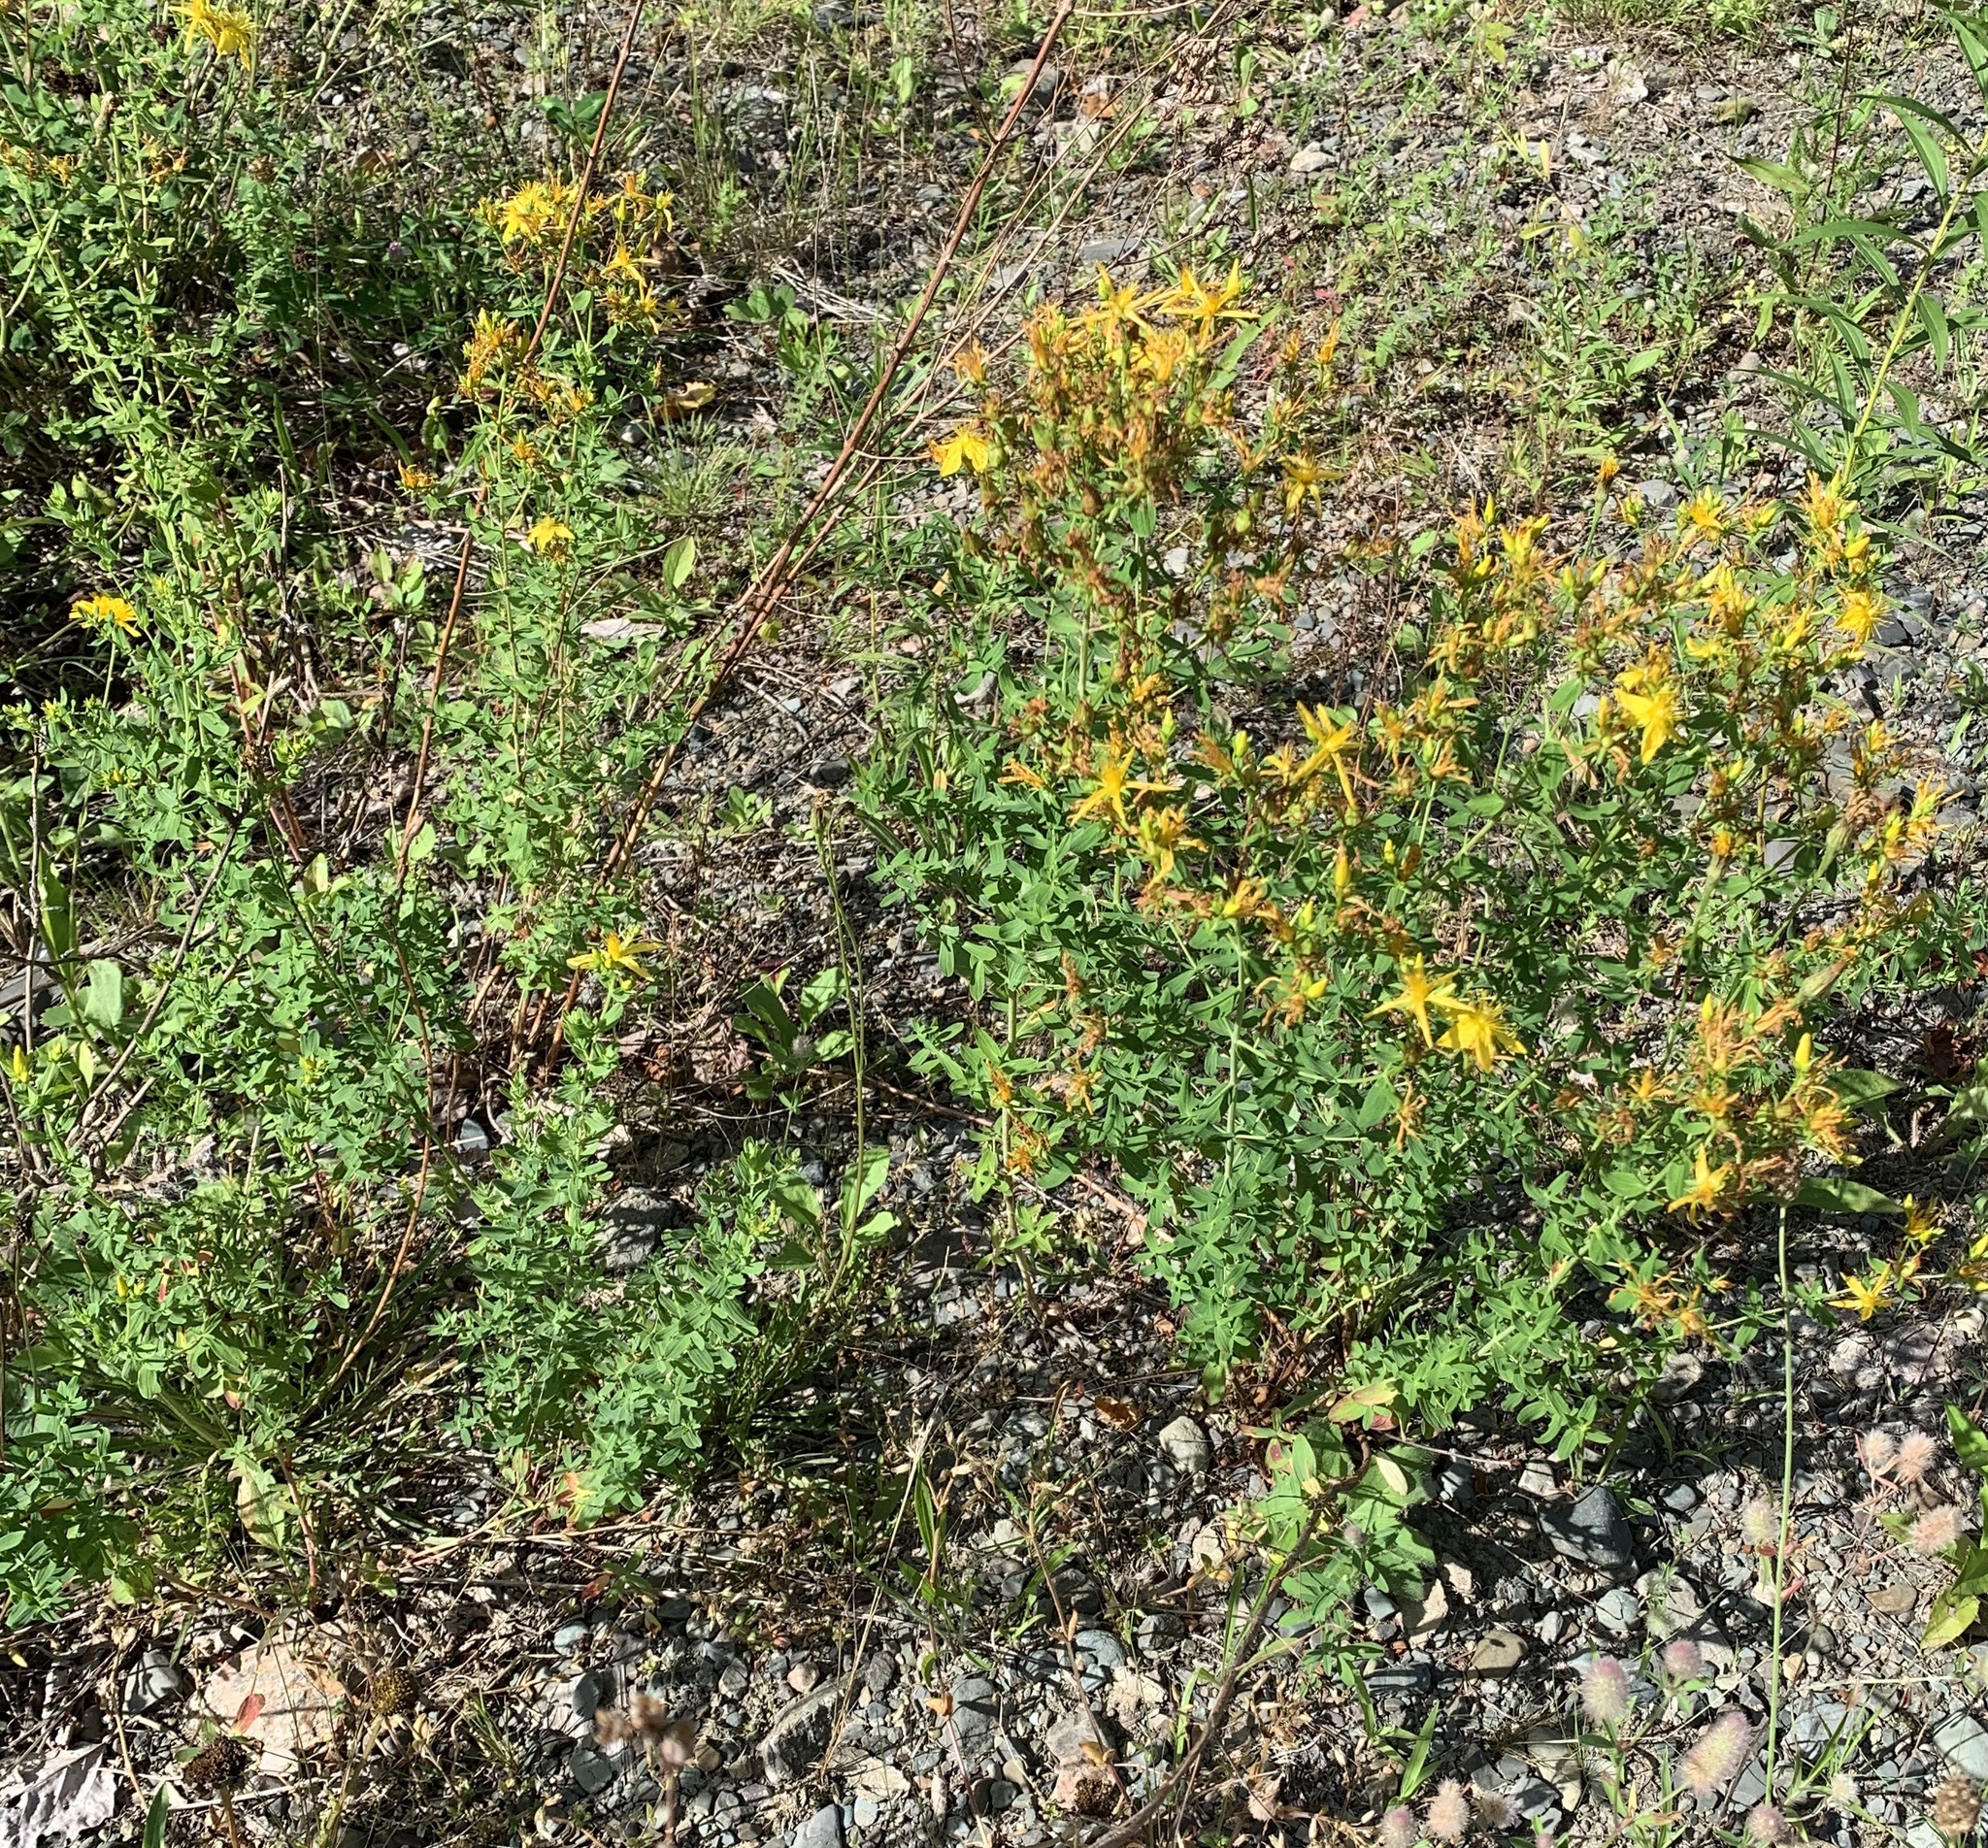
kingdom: Plantae
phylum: Tracheophyta
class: Magnoliopsida
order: Malpighiales
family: Hypericaceae
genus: Hypericum
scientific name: Hypericum perforatum
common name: Common st. johnswort
